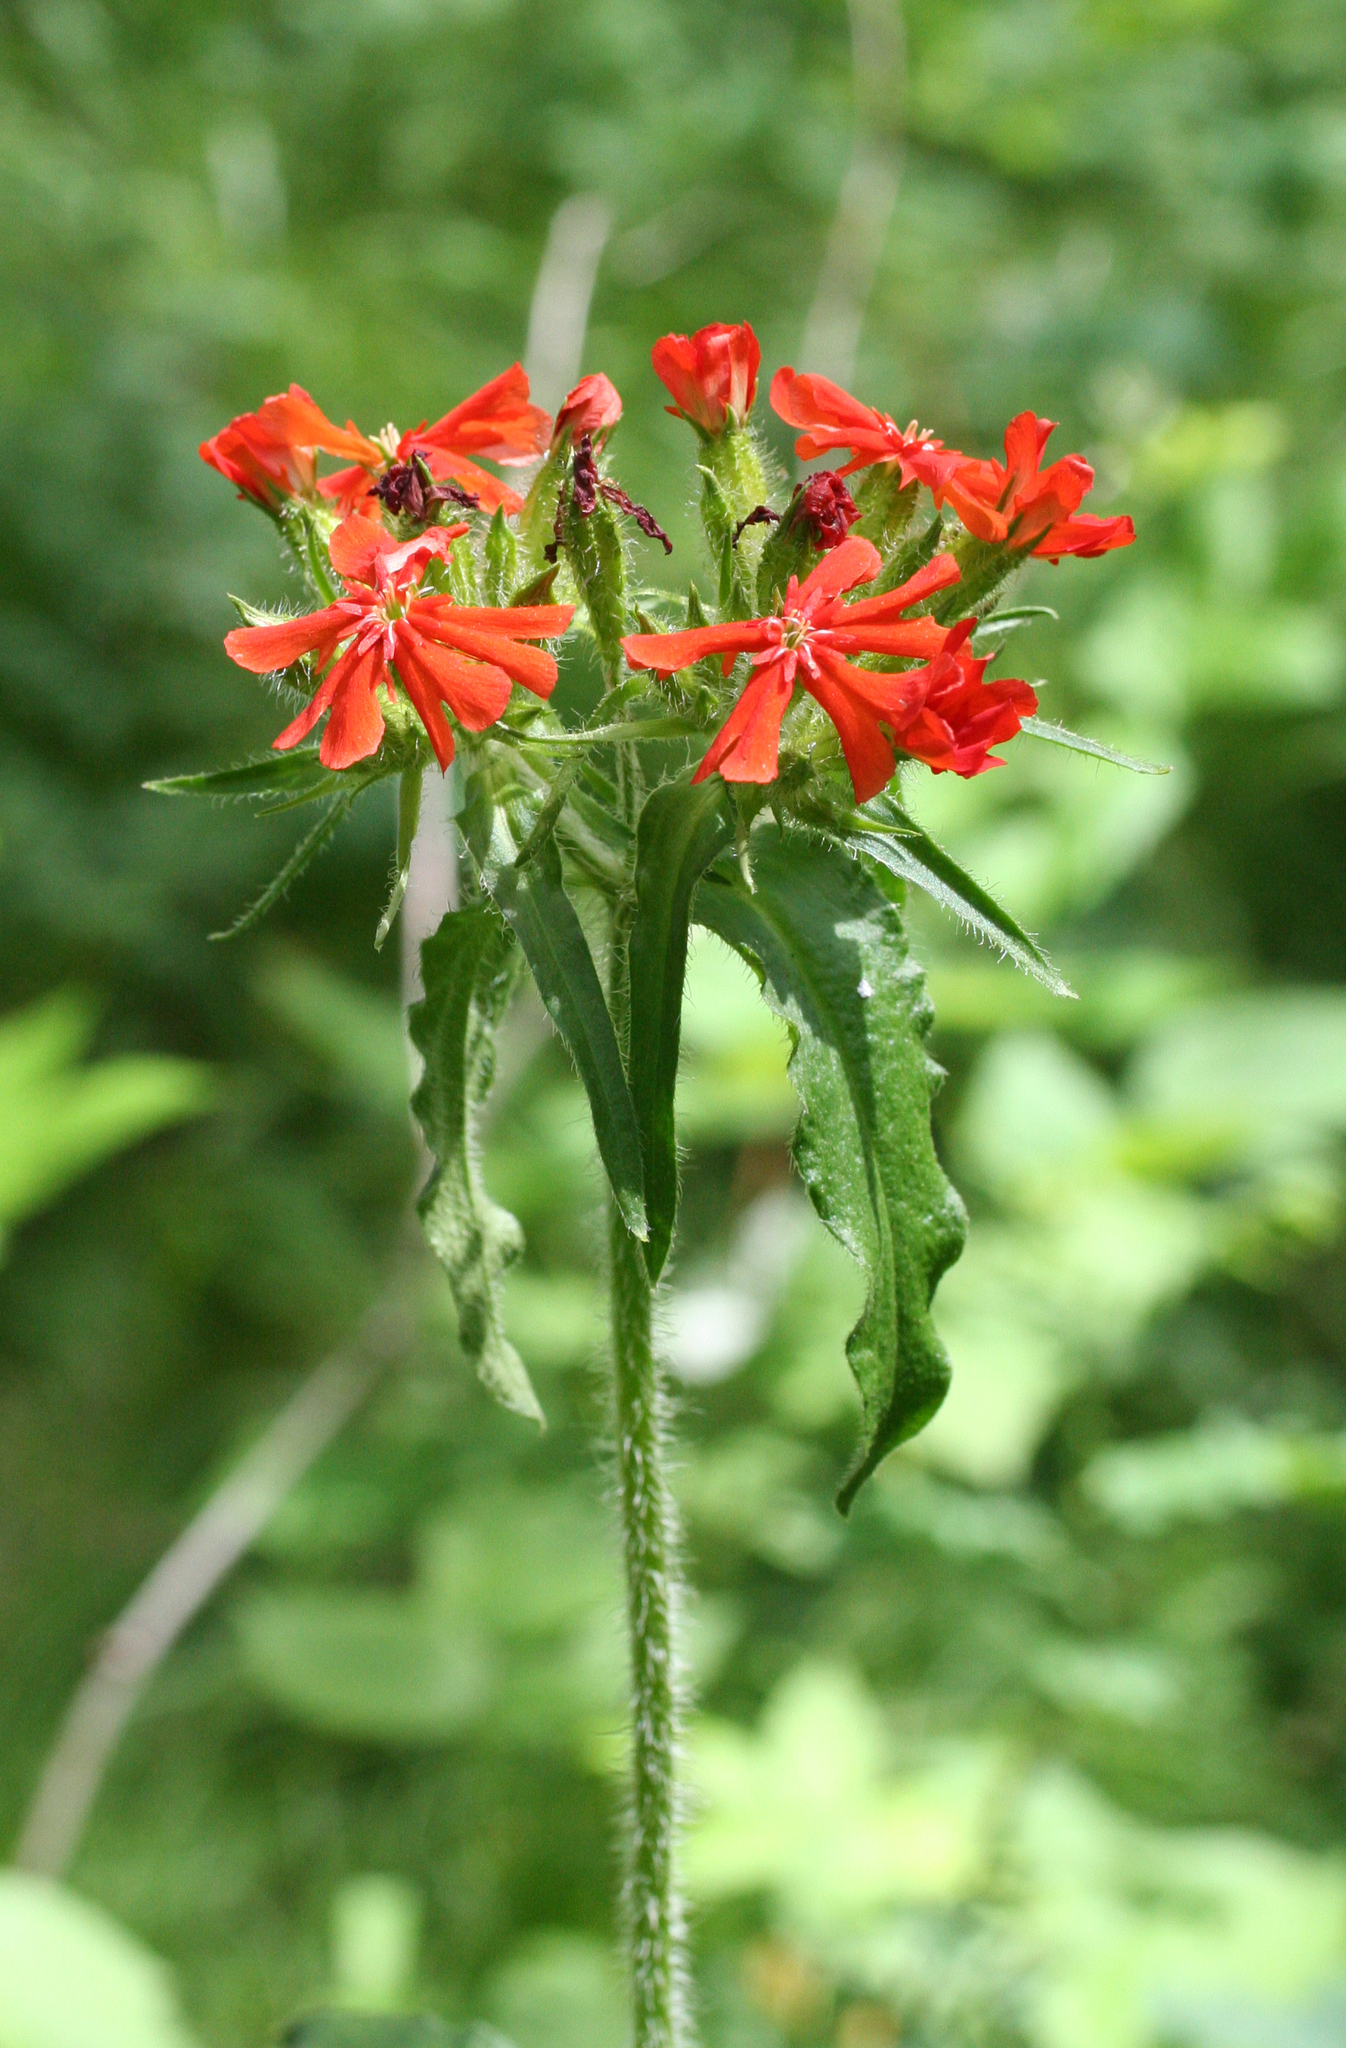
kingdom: Plantae
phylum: Tracheophyta
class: Magnoliopsida
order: Caryophyllales
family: Caryophyllaceae
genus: Silene
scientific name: Silene chalcedonica
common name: Maltese-cross
